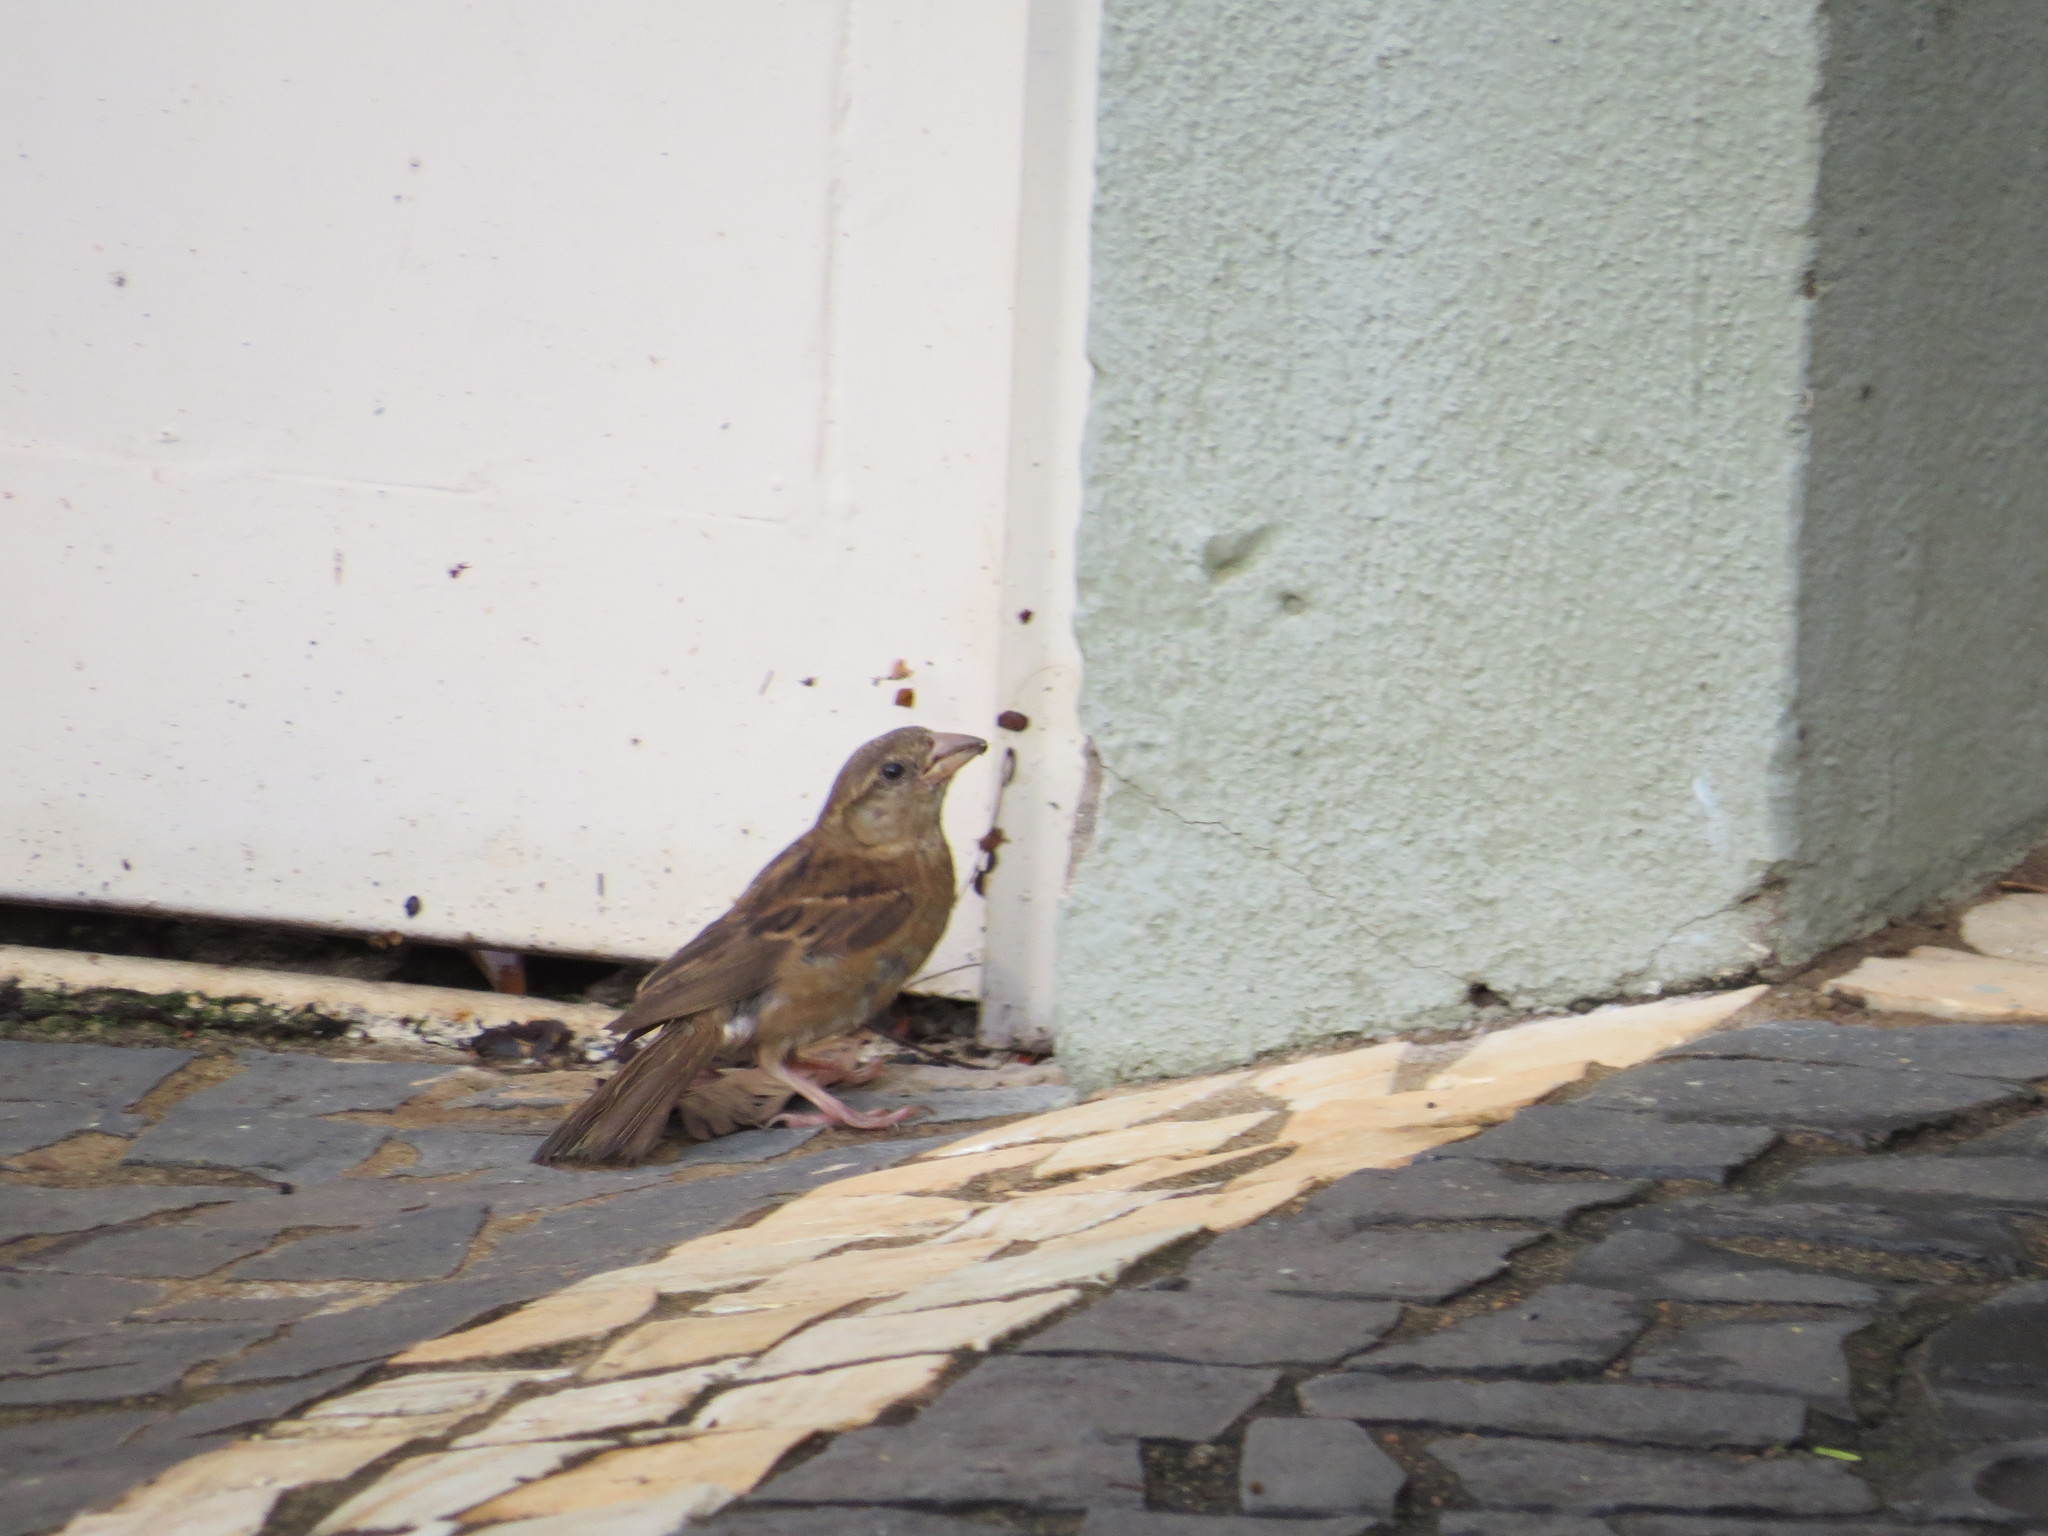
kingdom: Animalia
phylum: Chordata
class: Aves
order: Passeriformes
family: Passeridae
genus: Passer
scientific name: Passer domesticus
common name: House sparrow
